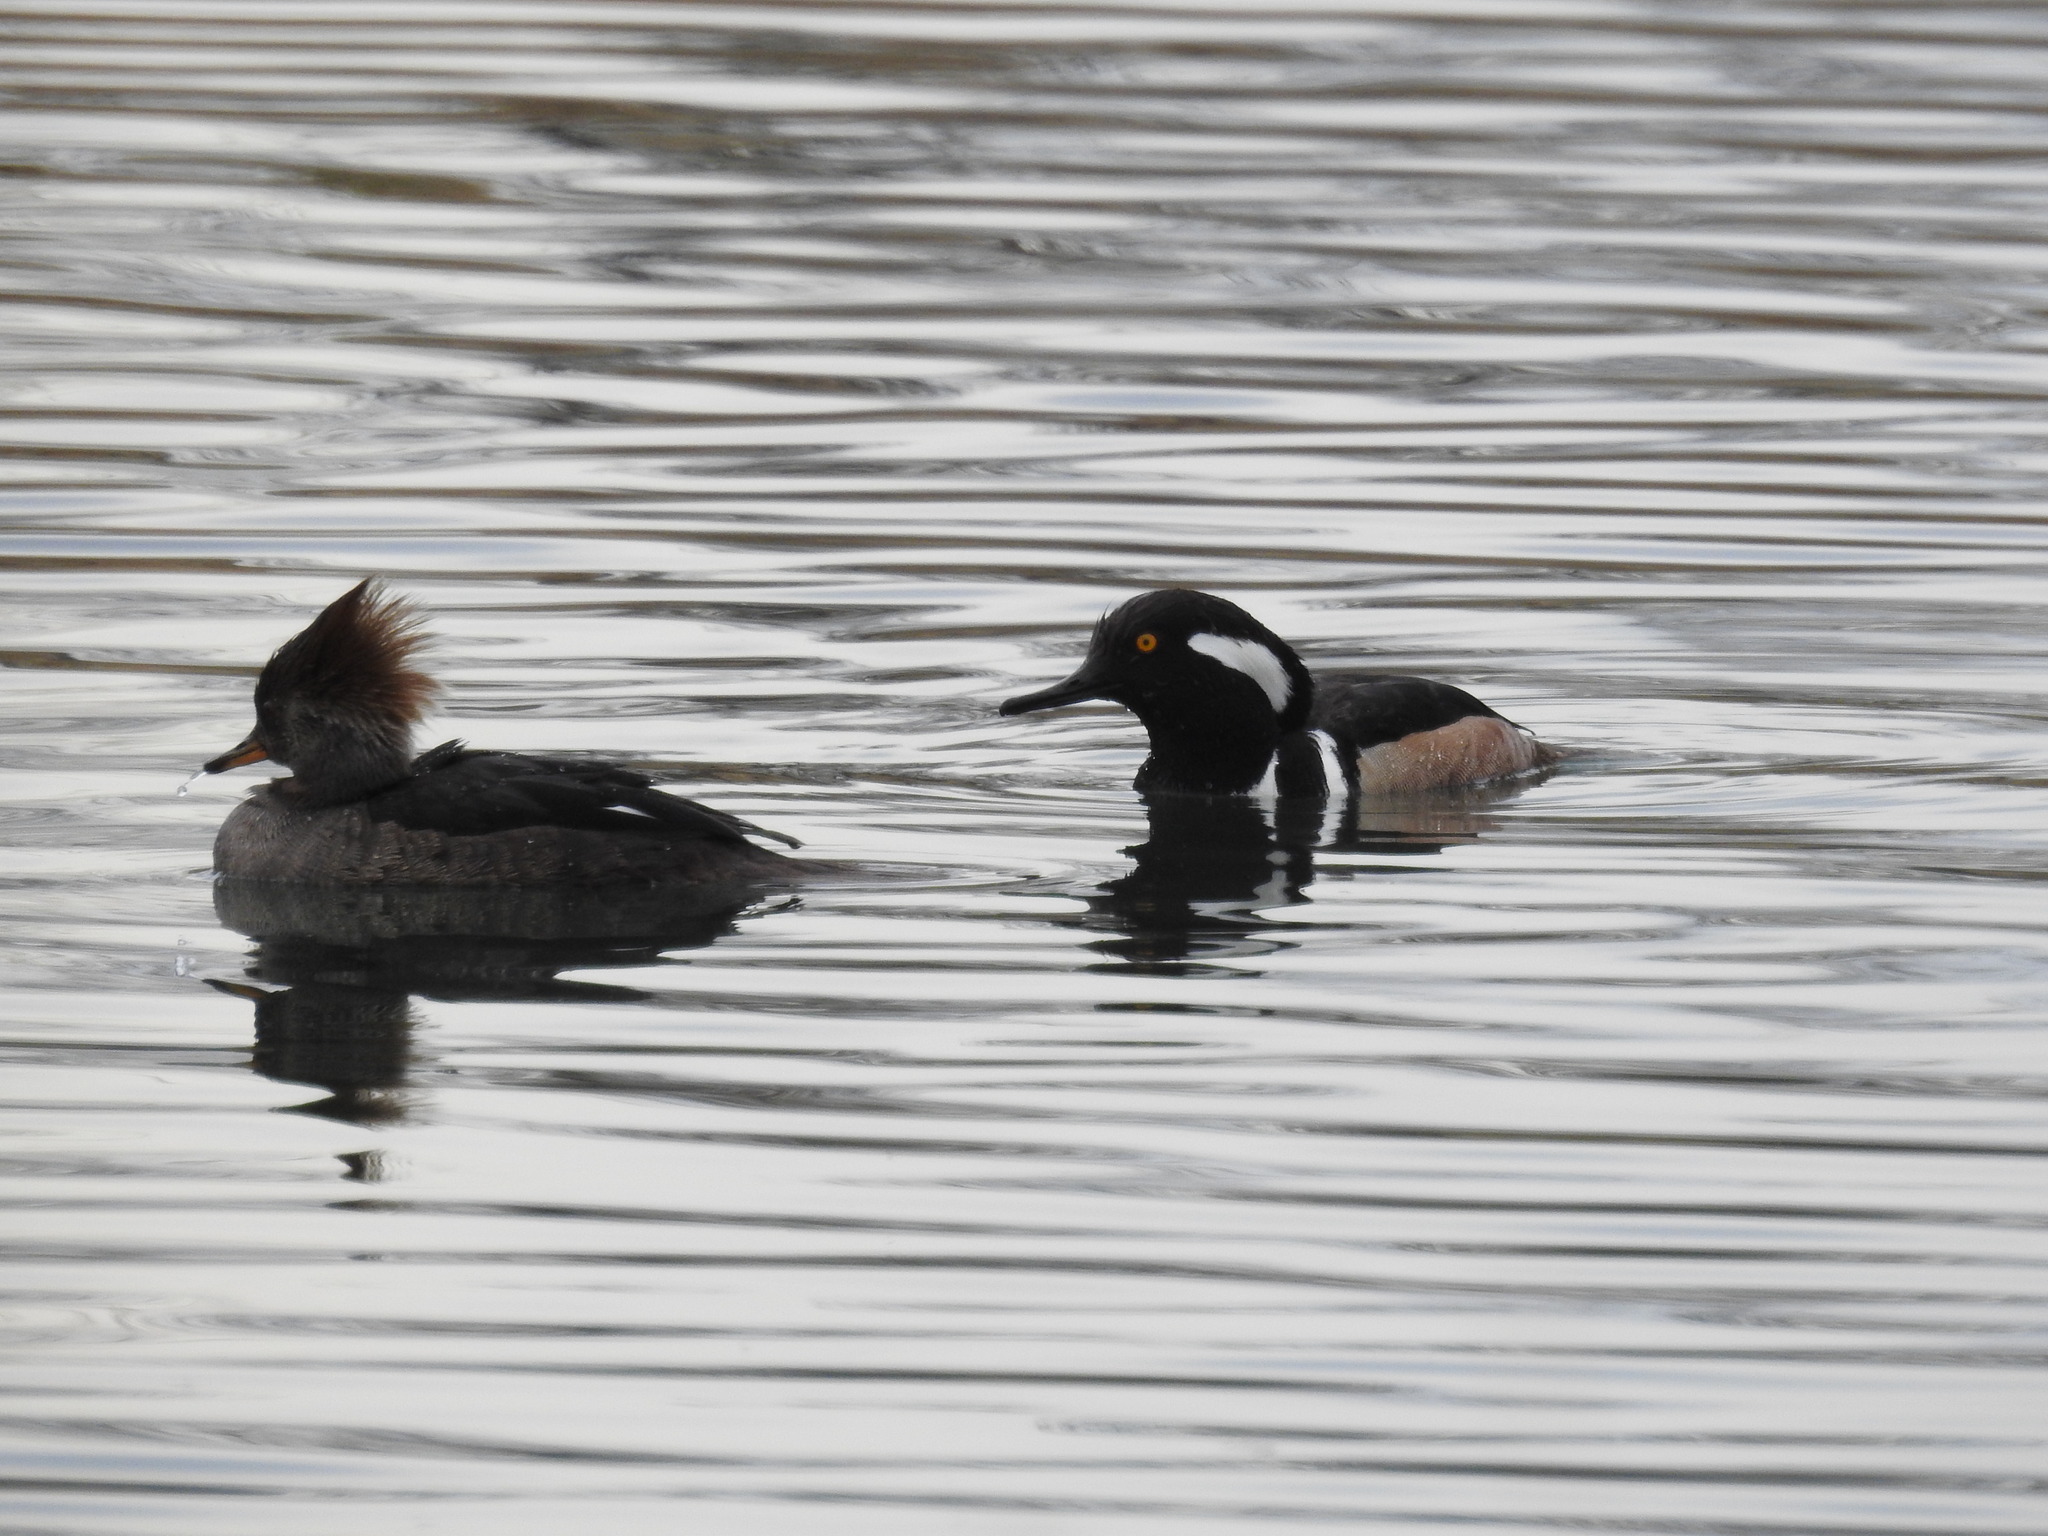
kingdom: Animalia
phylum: Chordata
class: Aves
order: Anseriformes
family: Anatidae
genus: Lophodytes
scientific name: Lophodytes cucullatus
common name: Hooded merganser
